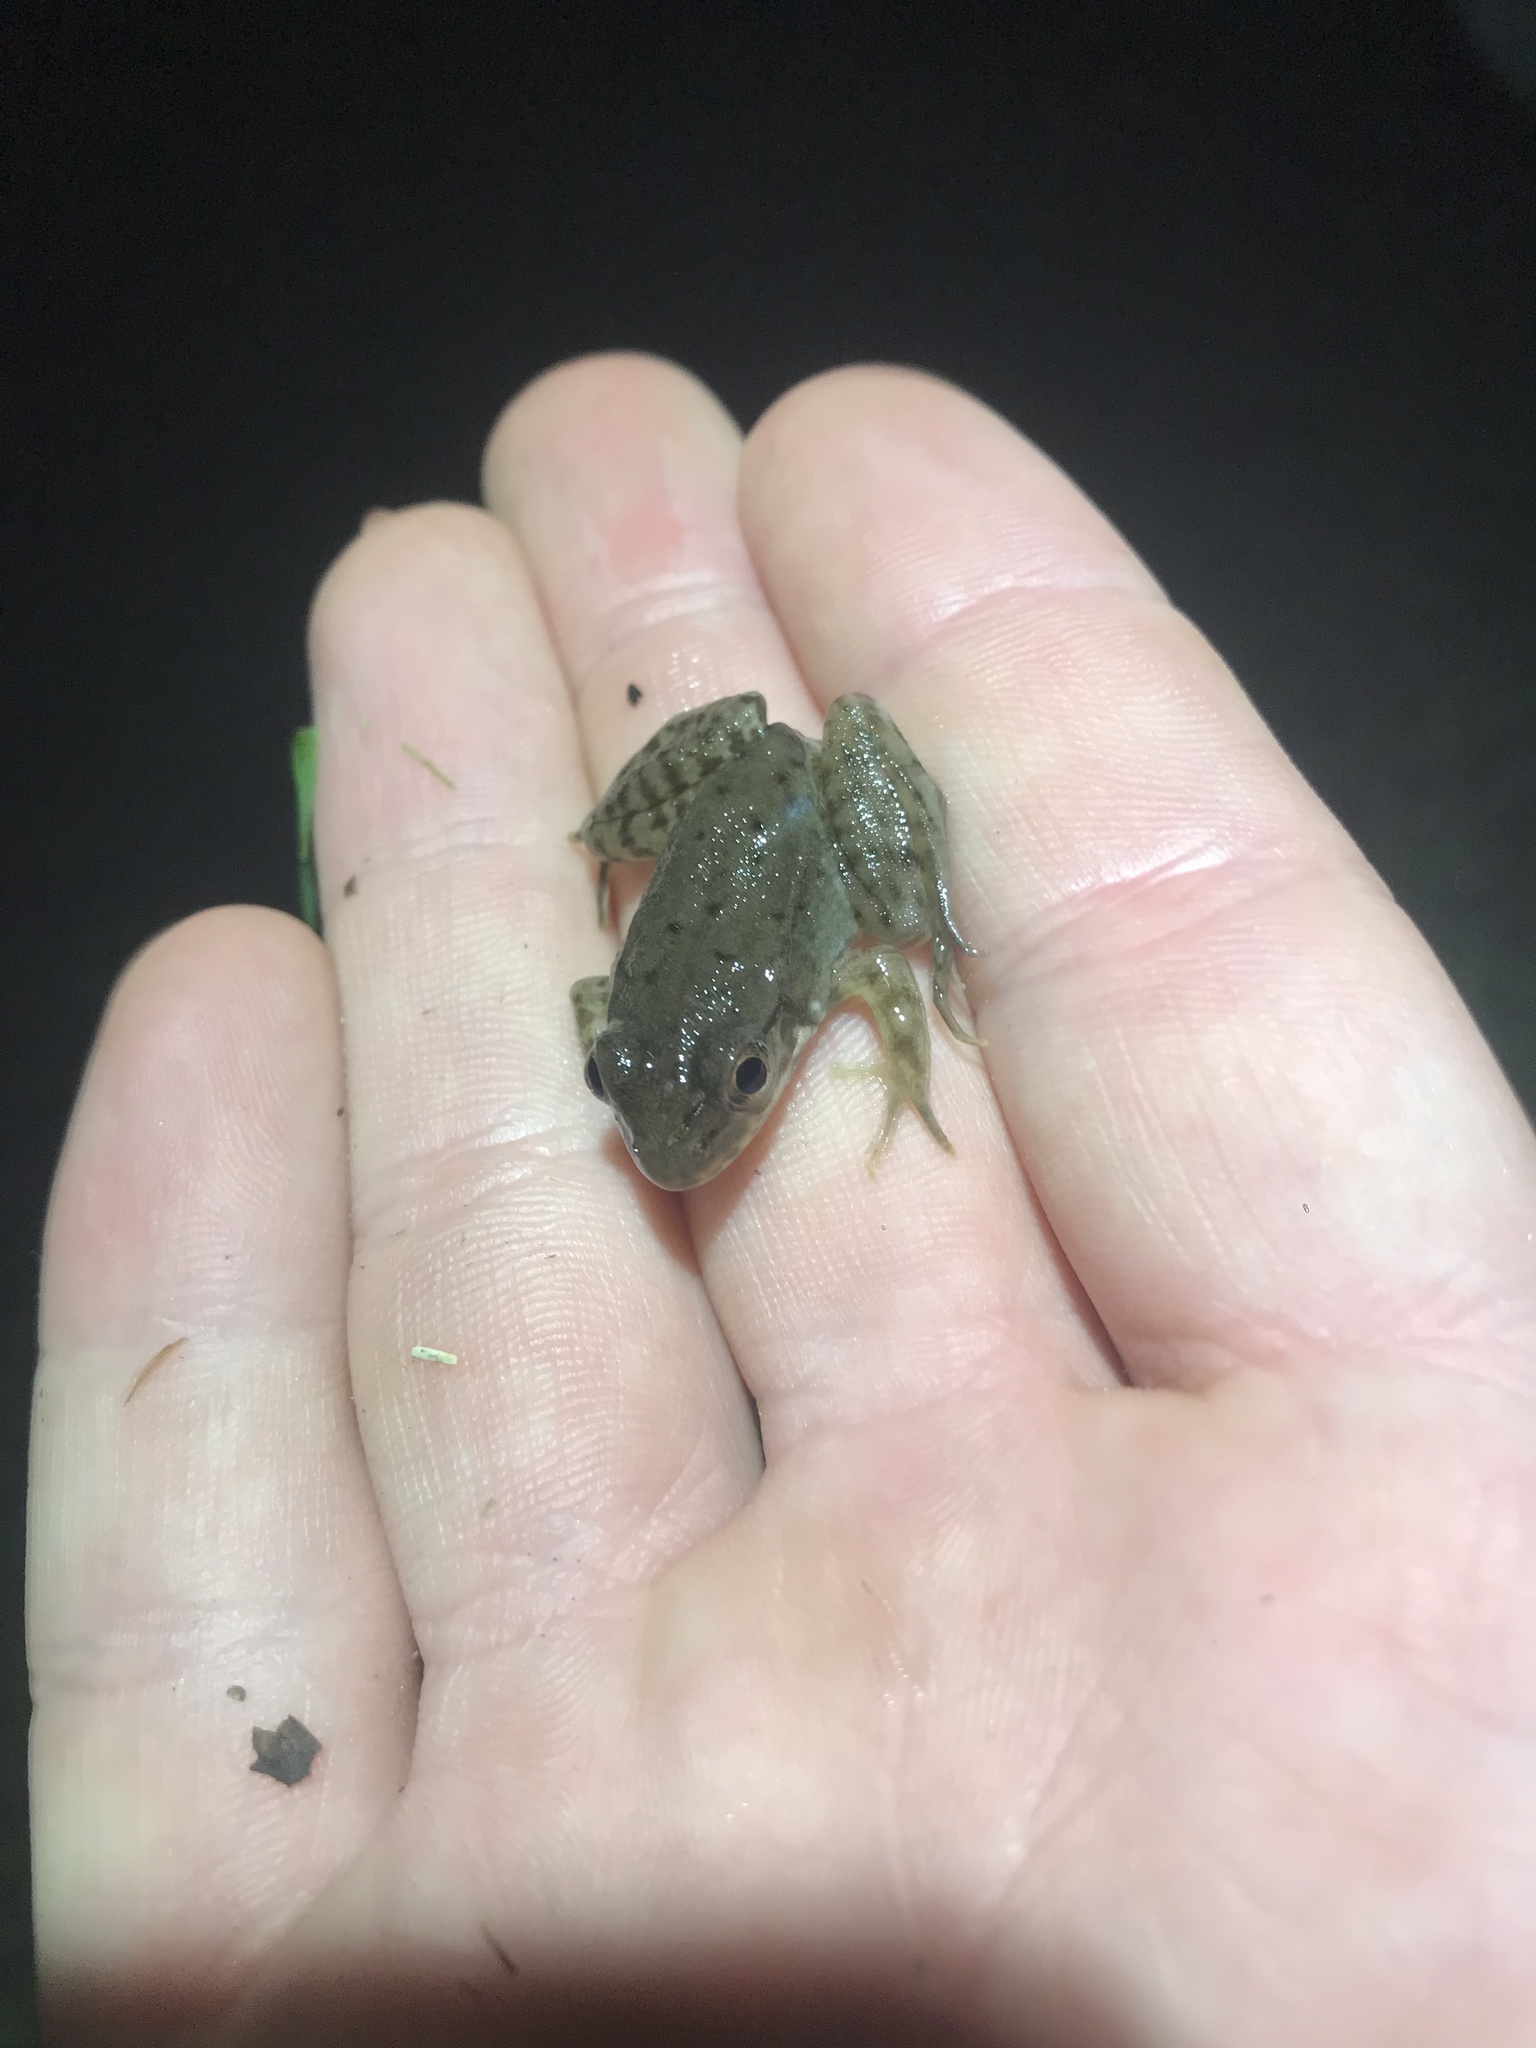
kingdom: Animalia
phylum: Chordata
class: Amphibia
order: Anura
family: Ranidae
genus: Lithobates
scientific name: Lithobates clamitans
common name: Green frog
